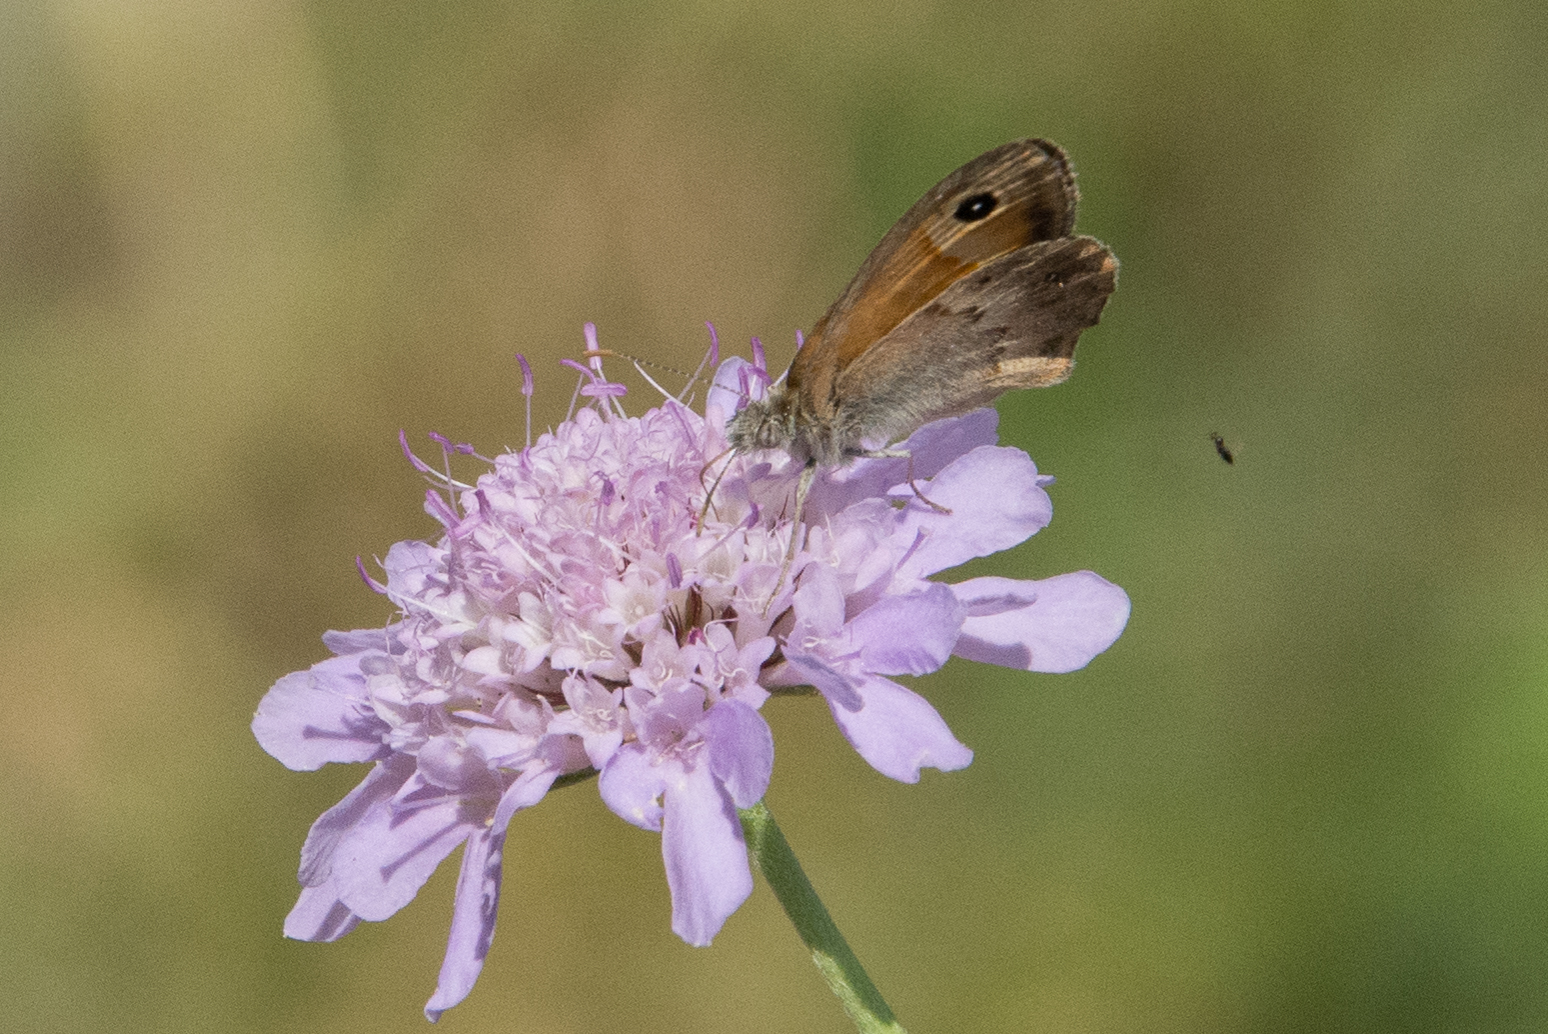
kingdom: Animalia
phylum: Arthropoda
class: Insecta
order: Lepidoptera
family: Nymphalidae
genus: Coenonympha
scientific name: Coenonympha pamphilus
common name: Small heath
